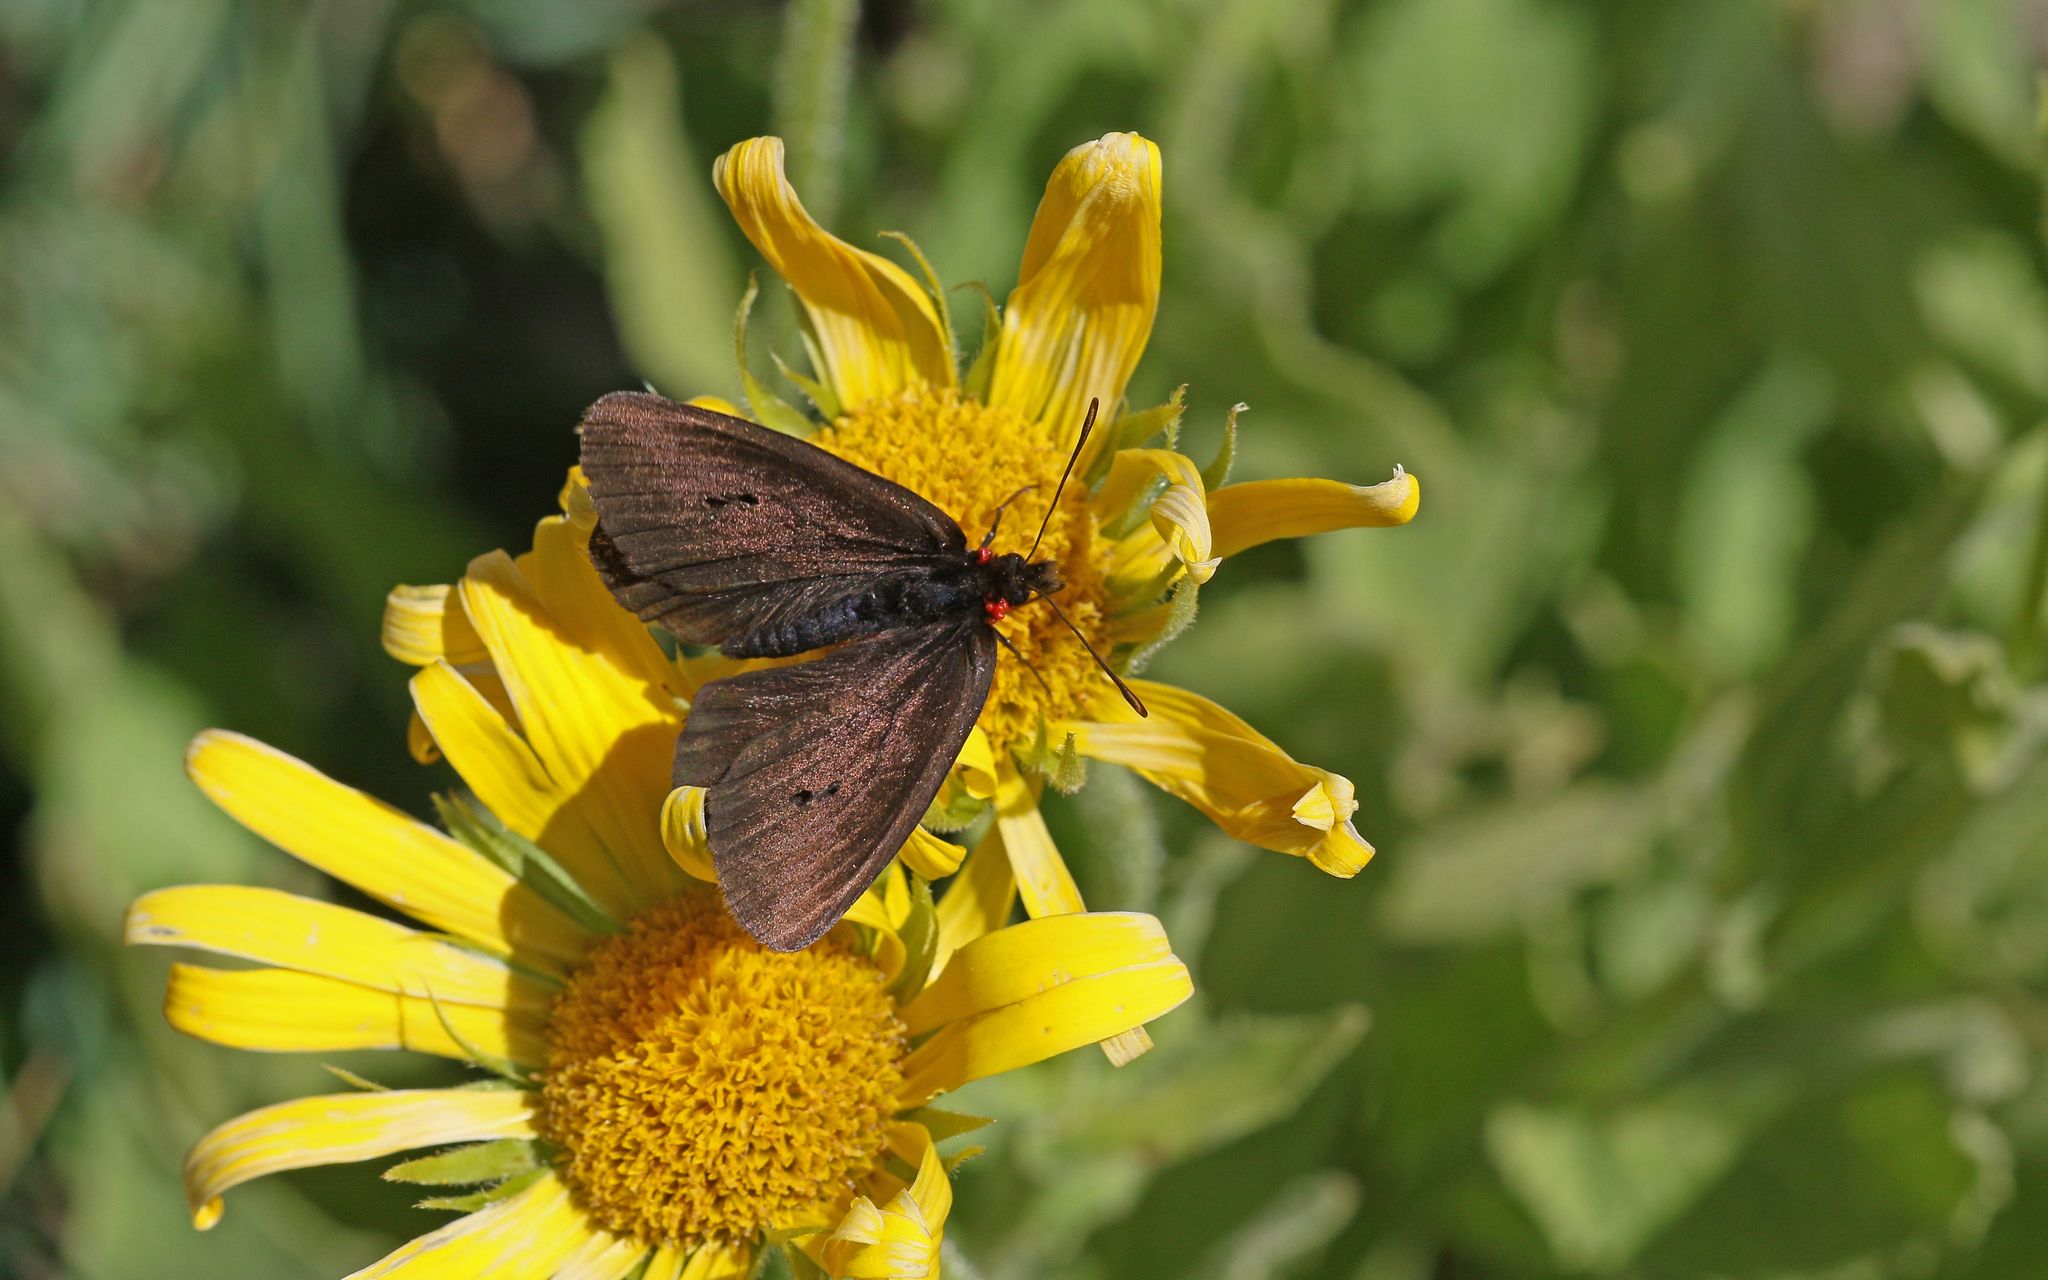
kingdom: Animalia
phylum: Arthropoda
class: Insecta
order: Lepidoptera
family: Nymphalidae
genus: Erebia
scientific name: Erebia pluto
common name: Sooty ringlet
